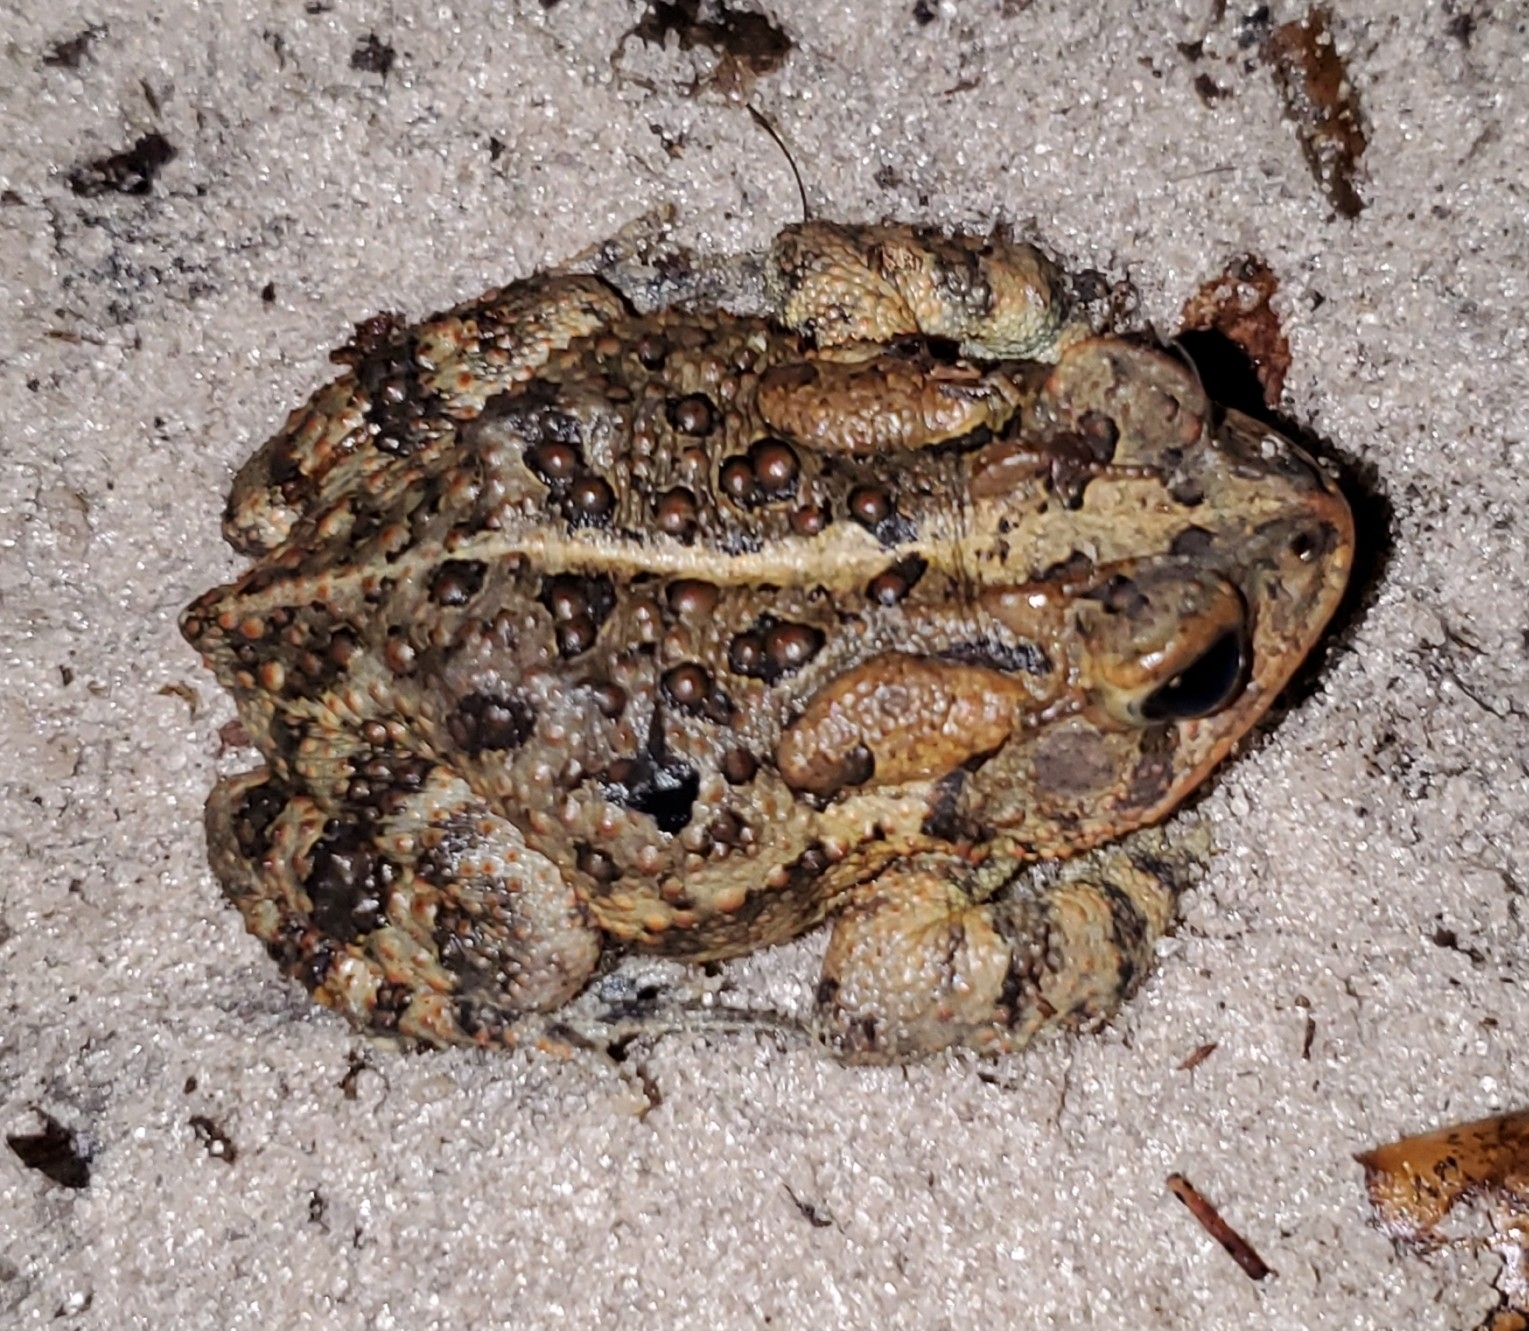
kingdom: Animalia
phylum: Chordata
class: Amphibia
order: Anura
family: Bufonidae
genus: Anaxyrus
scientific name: Anaxyrus terrestris
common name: Southern toad
